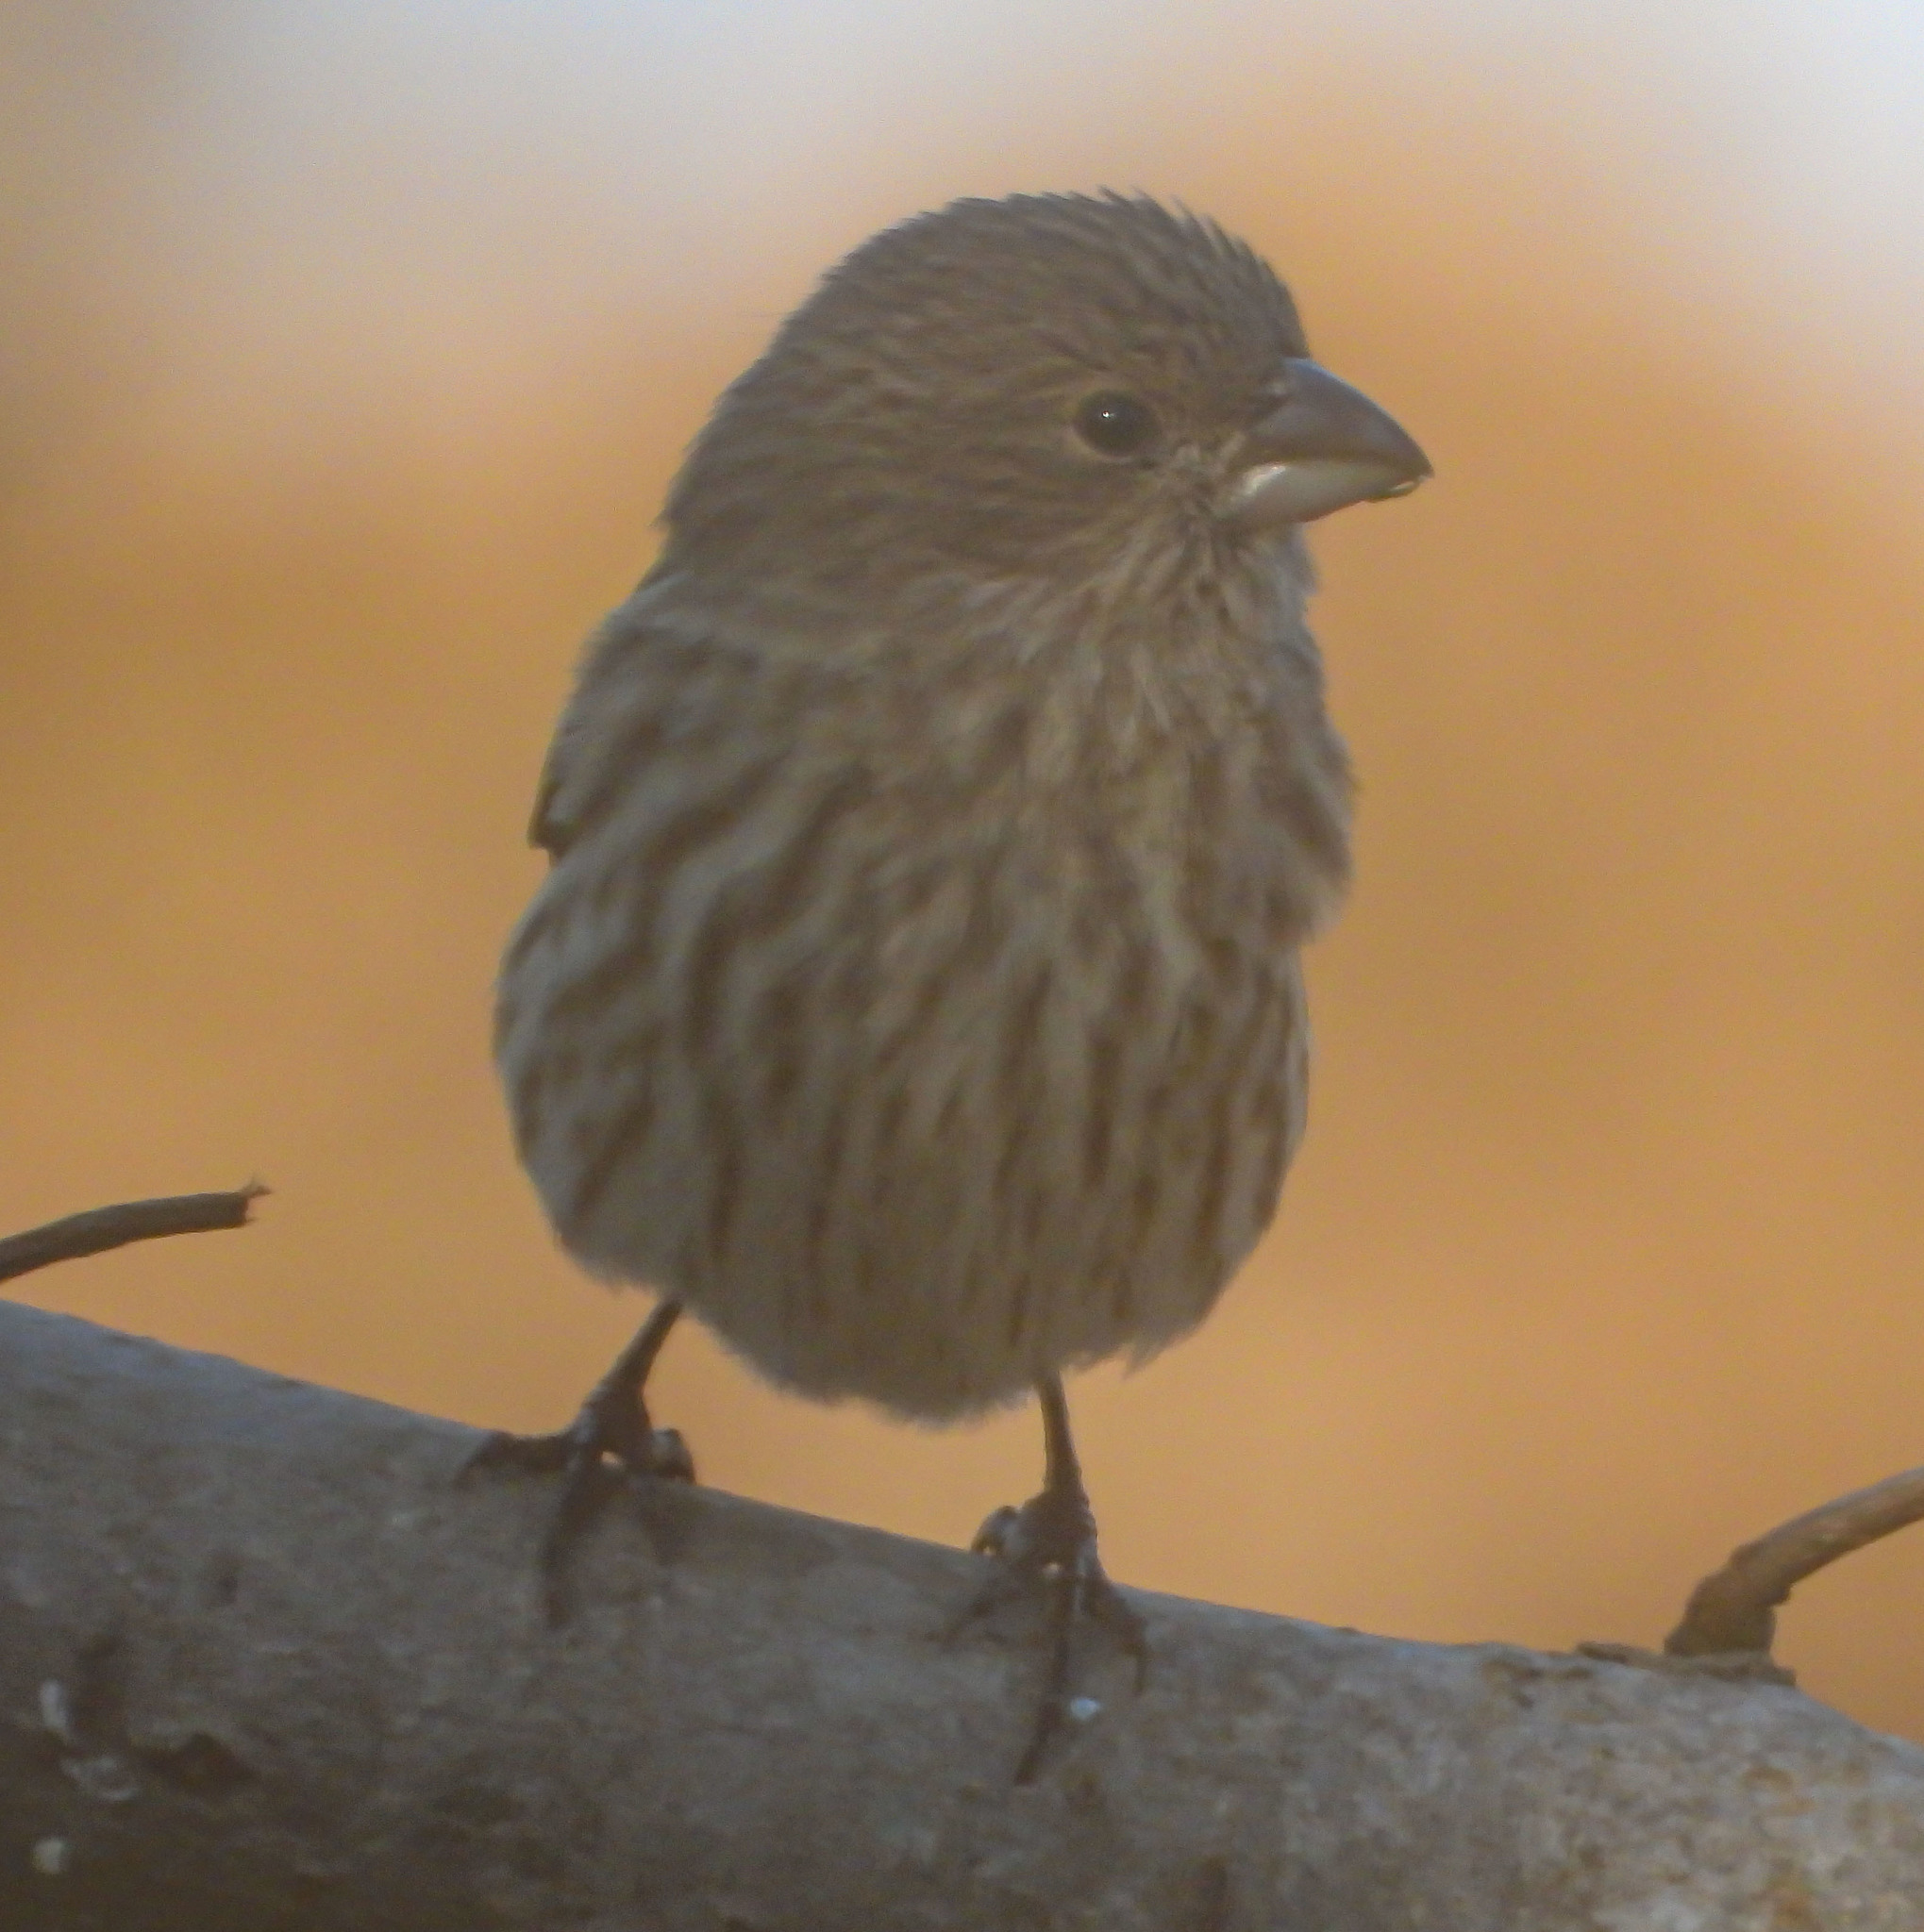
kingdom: Animalia
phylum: Chordata
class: Aves
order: Passeriformes
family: Fringillidae
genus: Haemorhous
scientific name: Haemorhous mexicanus
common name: House finch
